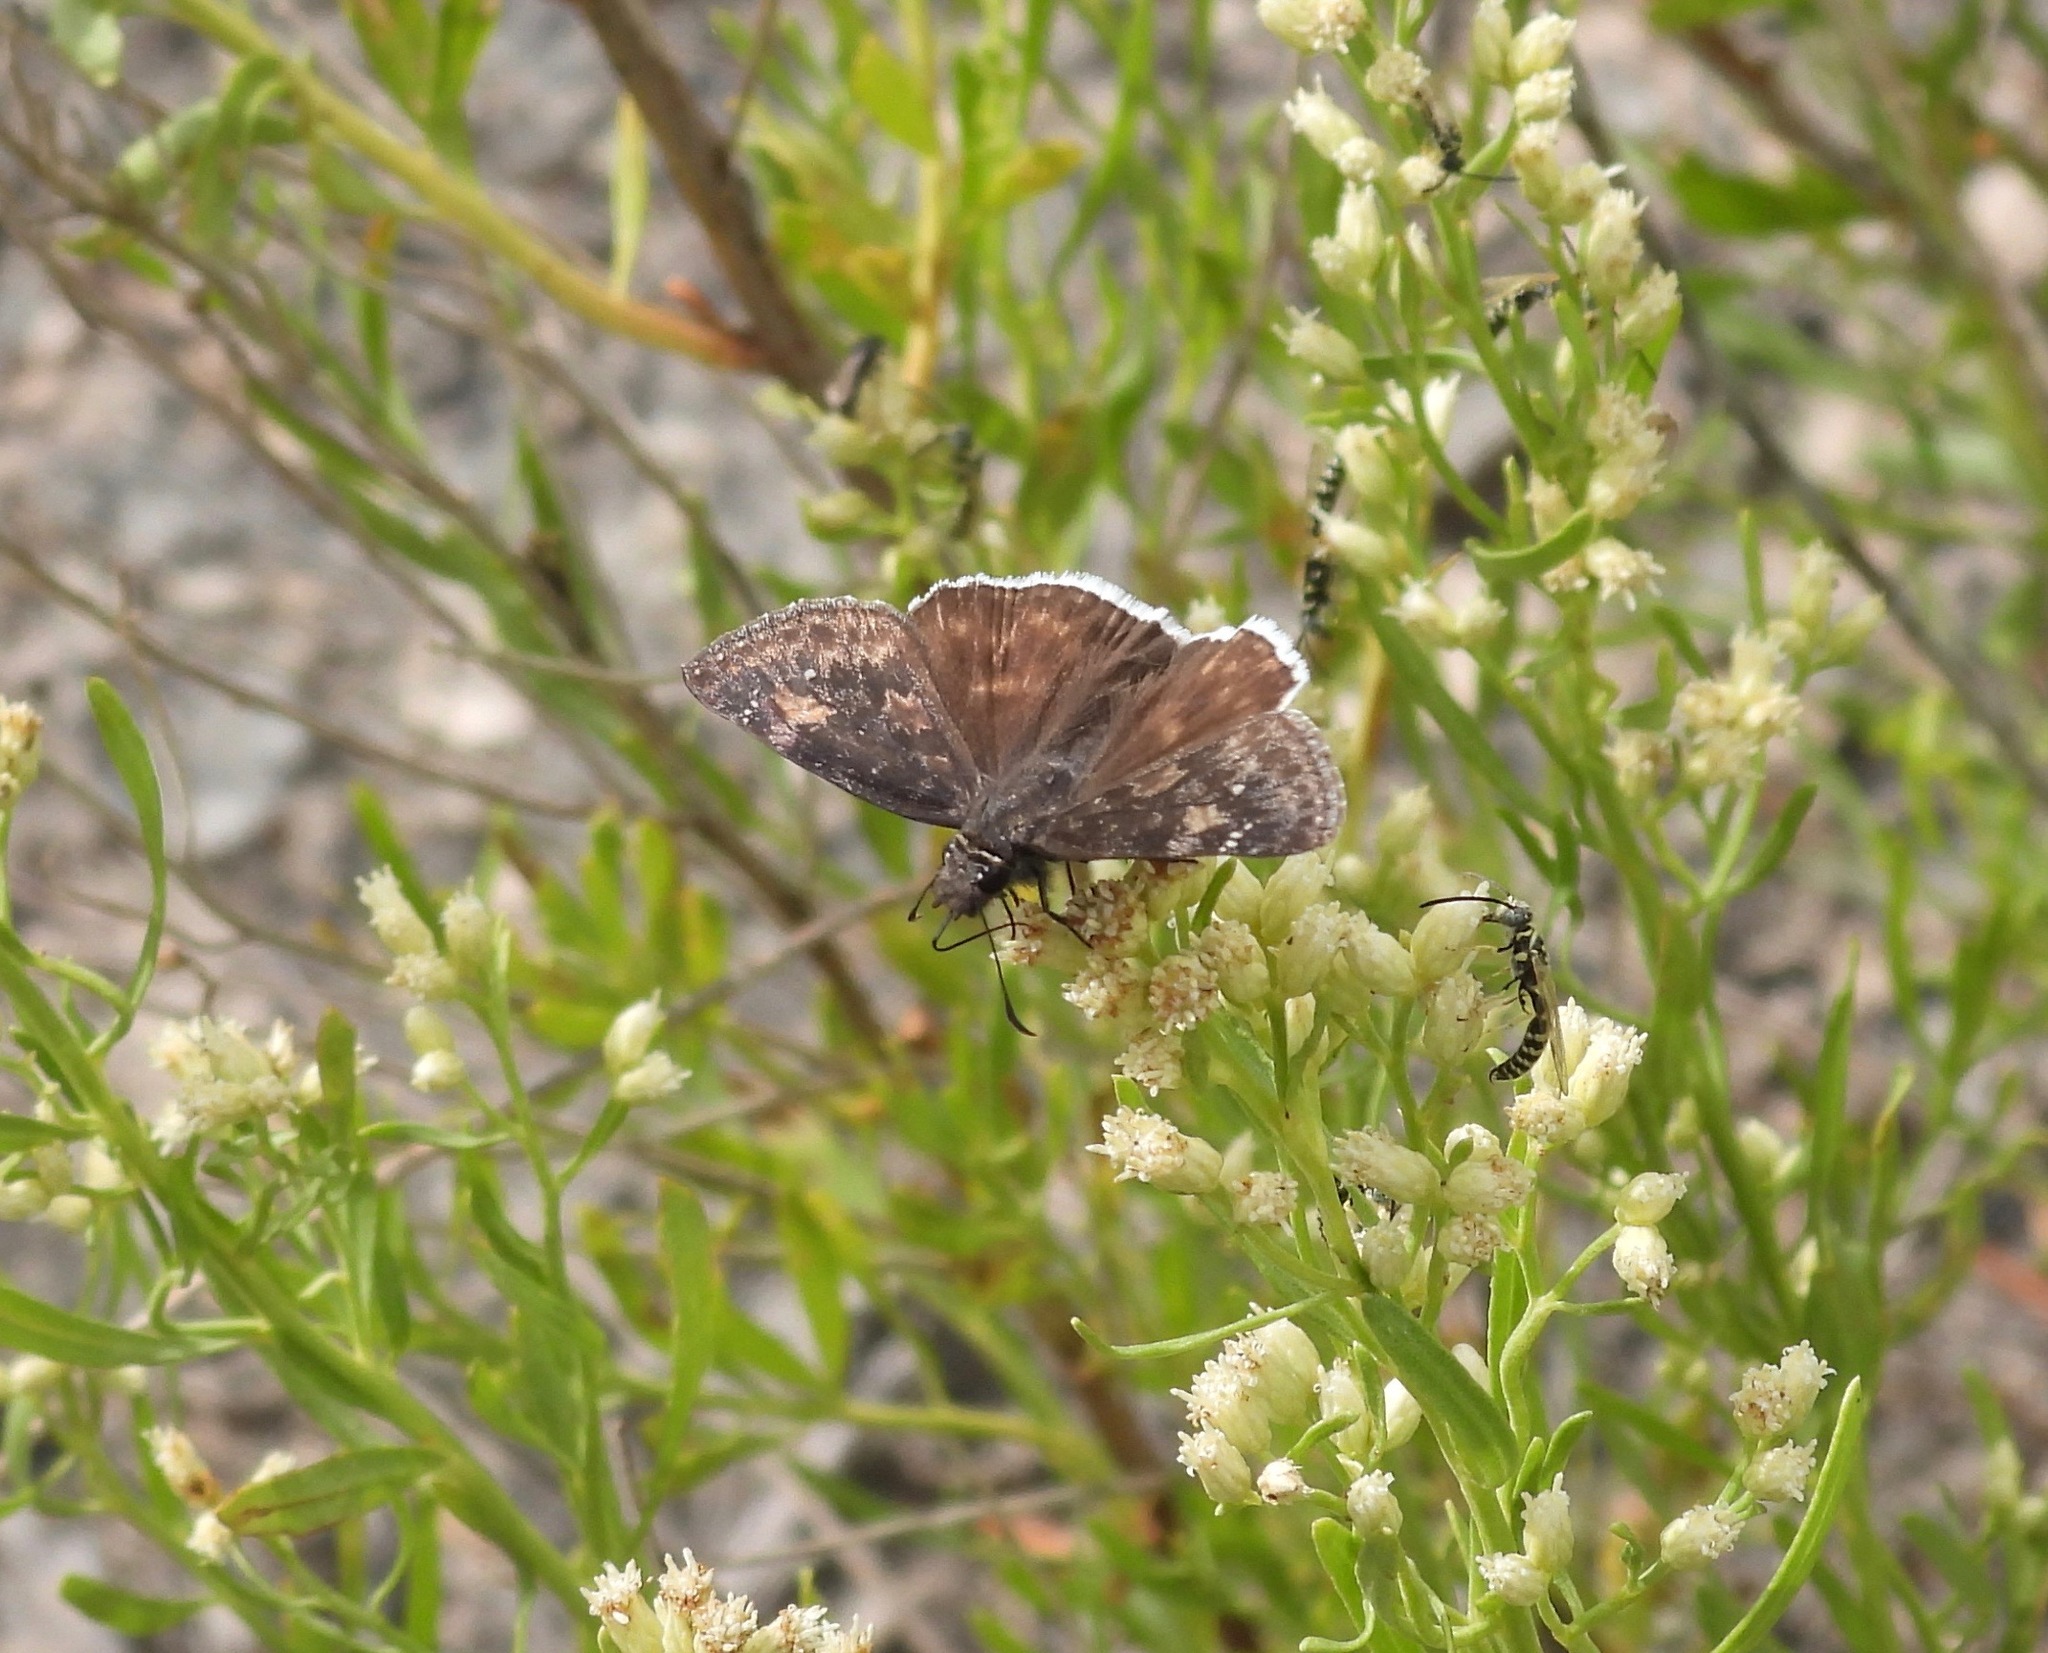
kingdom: Animalia
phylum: Arthropoda
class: Insecta
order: Lepidoptera
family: Hesperiidae
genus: Erynnis
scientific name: Erynnis funeralis
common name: Funereal duskywing
